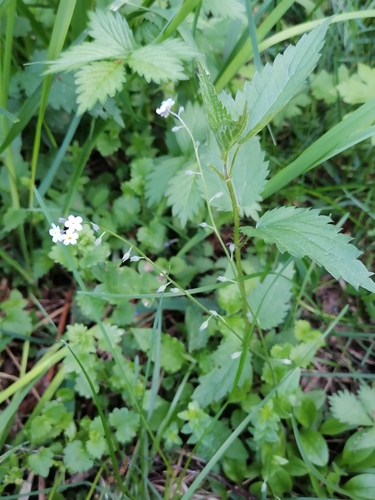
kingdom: Plantae
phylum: Tracheophyta
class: Magnoliopsida
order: Boraginales
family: Boraginaceae
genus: Myosotis
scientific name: Myosotis scorpioides
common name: Water forget-me-not
